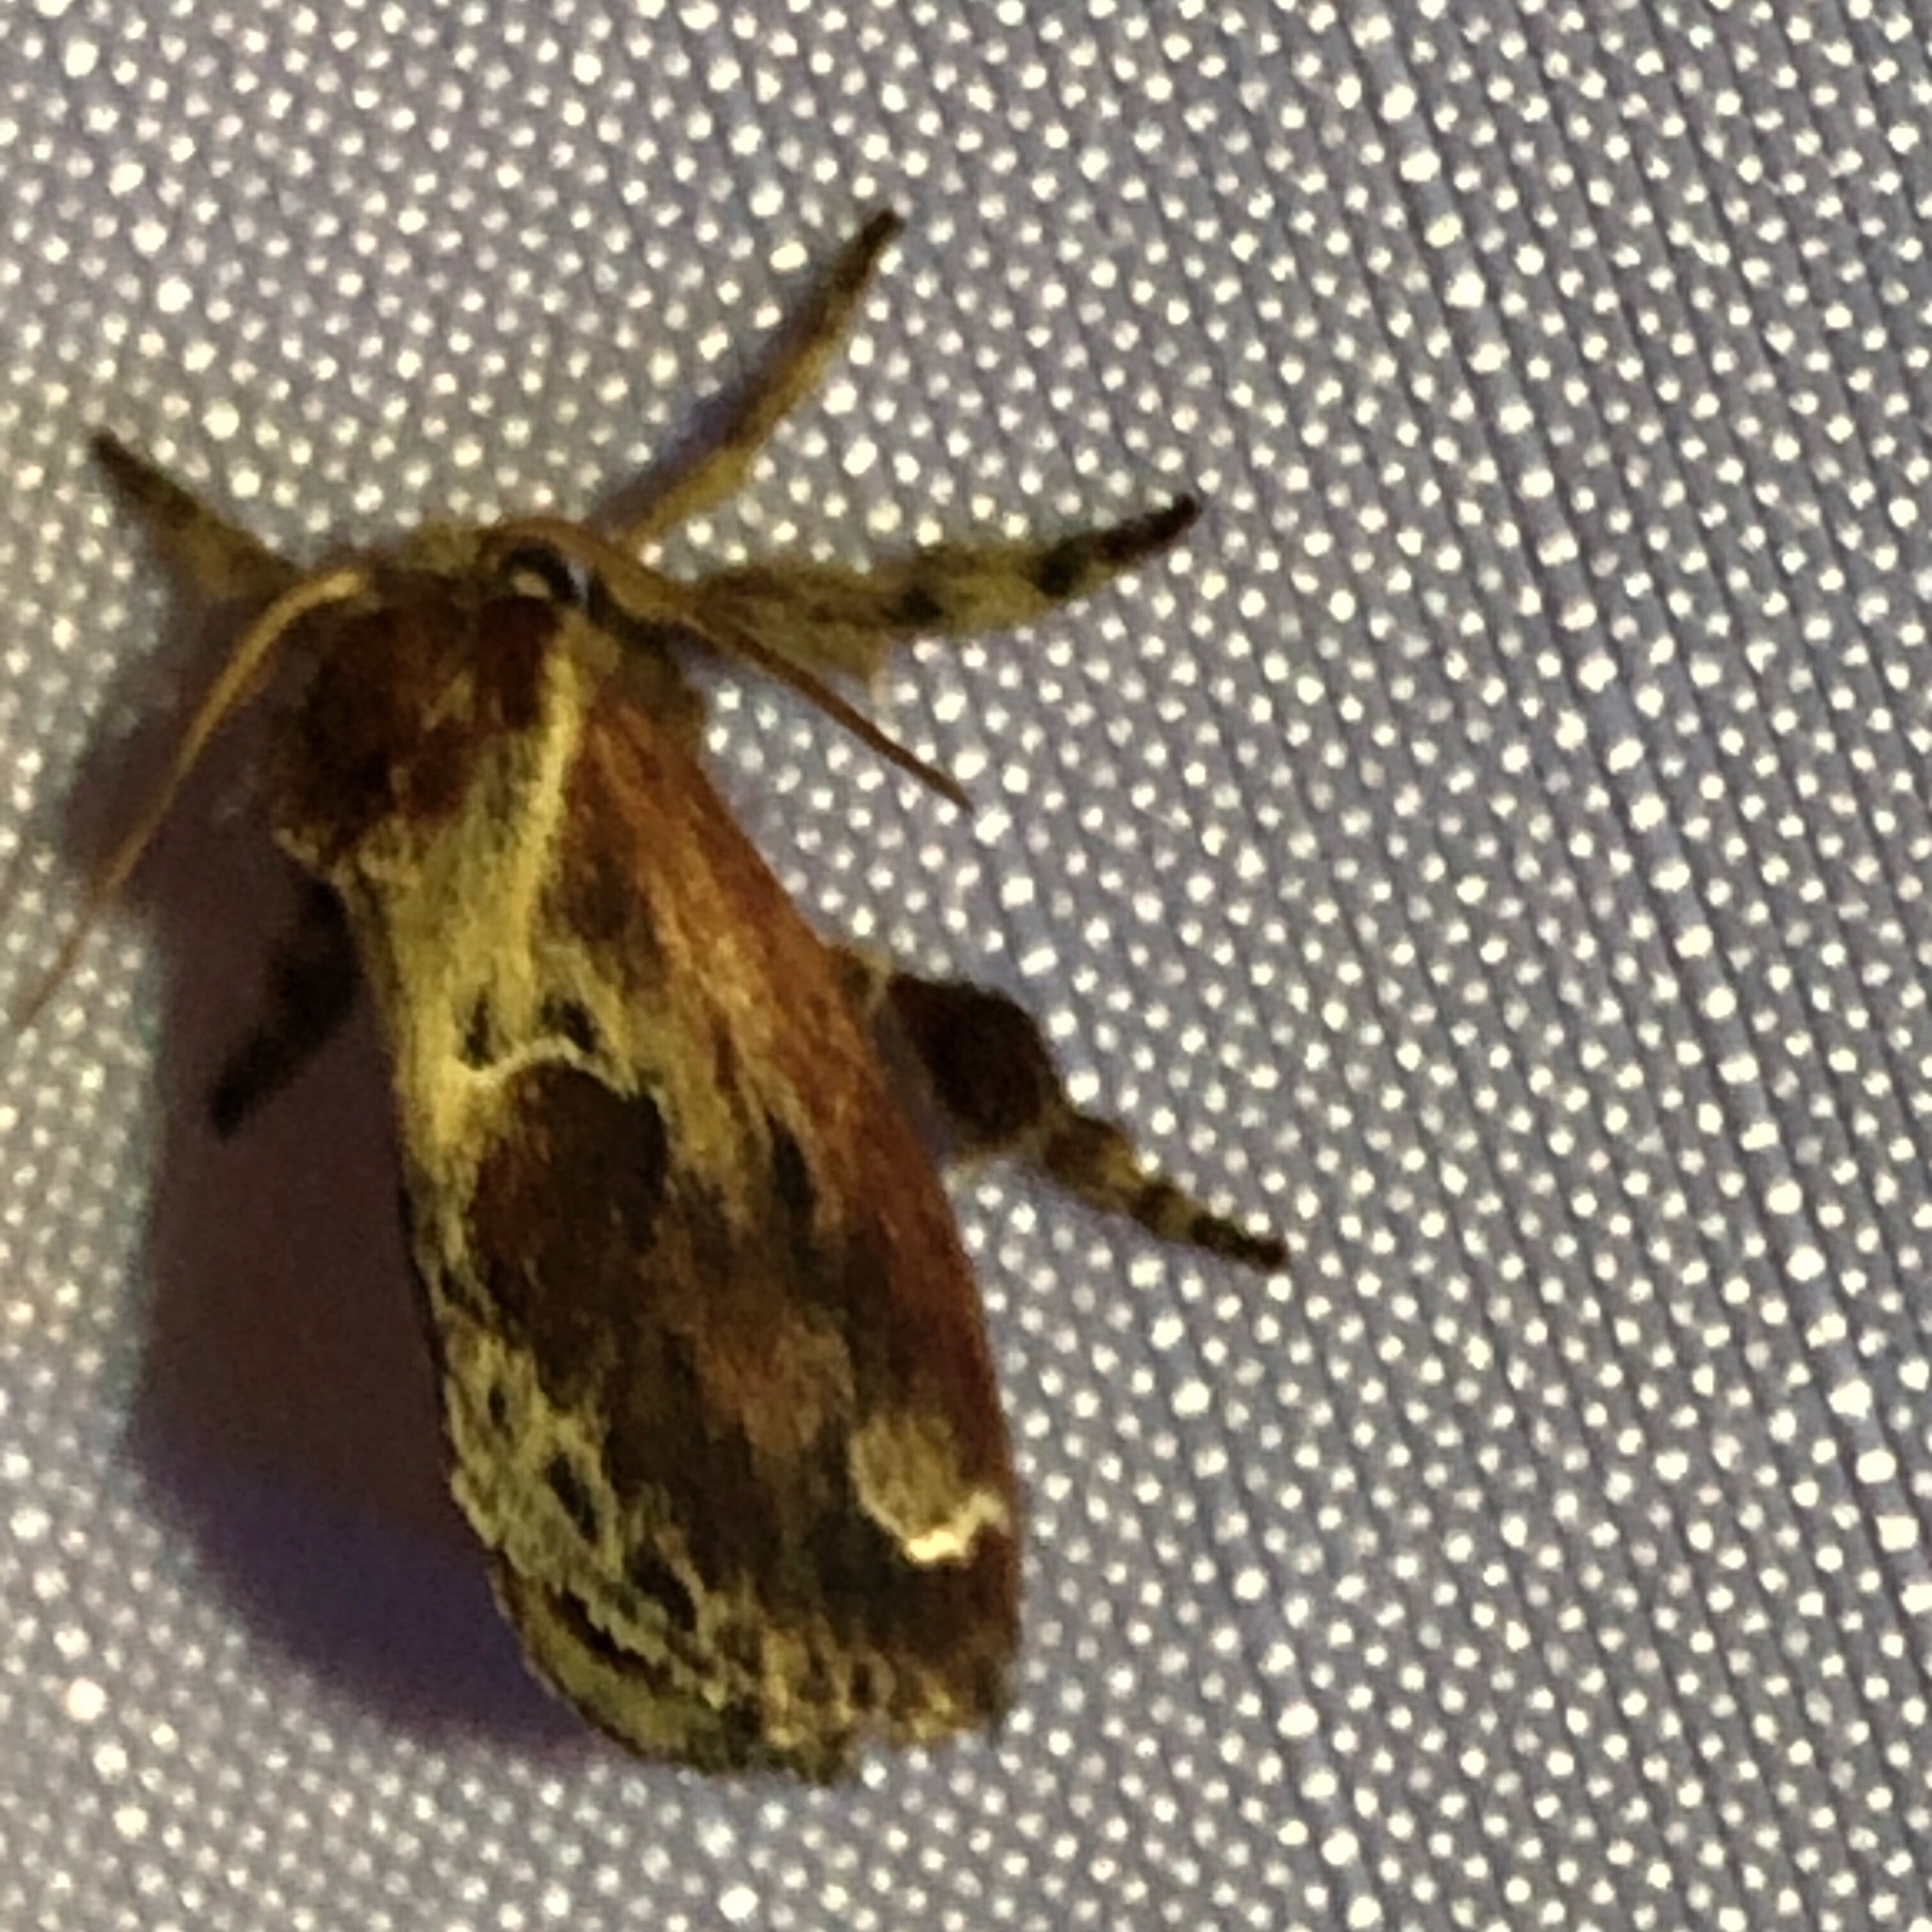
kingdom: Animalia
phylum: Arthropoda
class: Insecta
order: Lepidoptera
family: Limacodidae
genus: Adoneta
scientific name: Adoneta spinuloides
